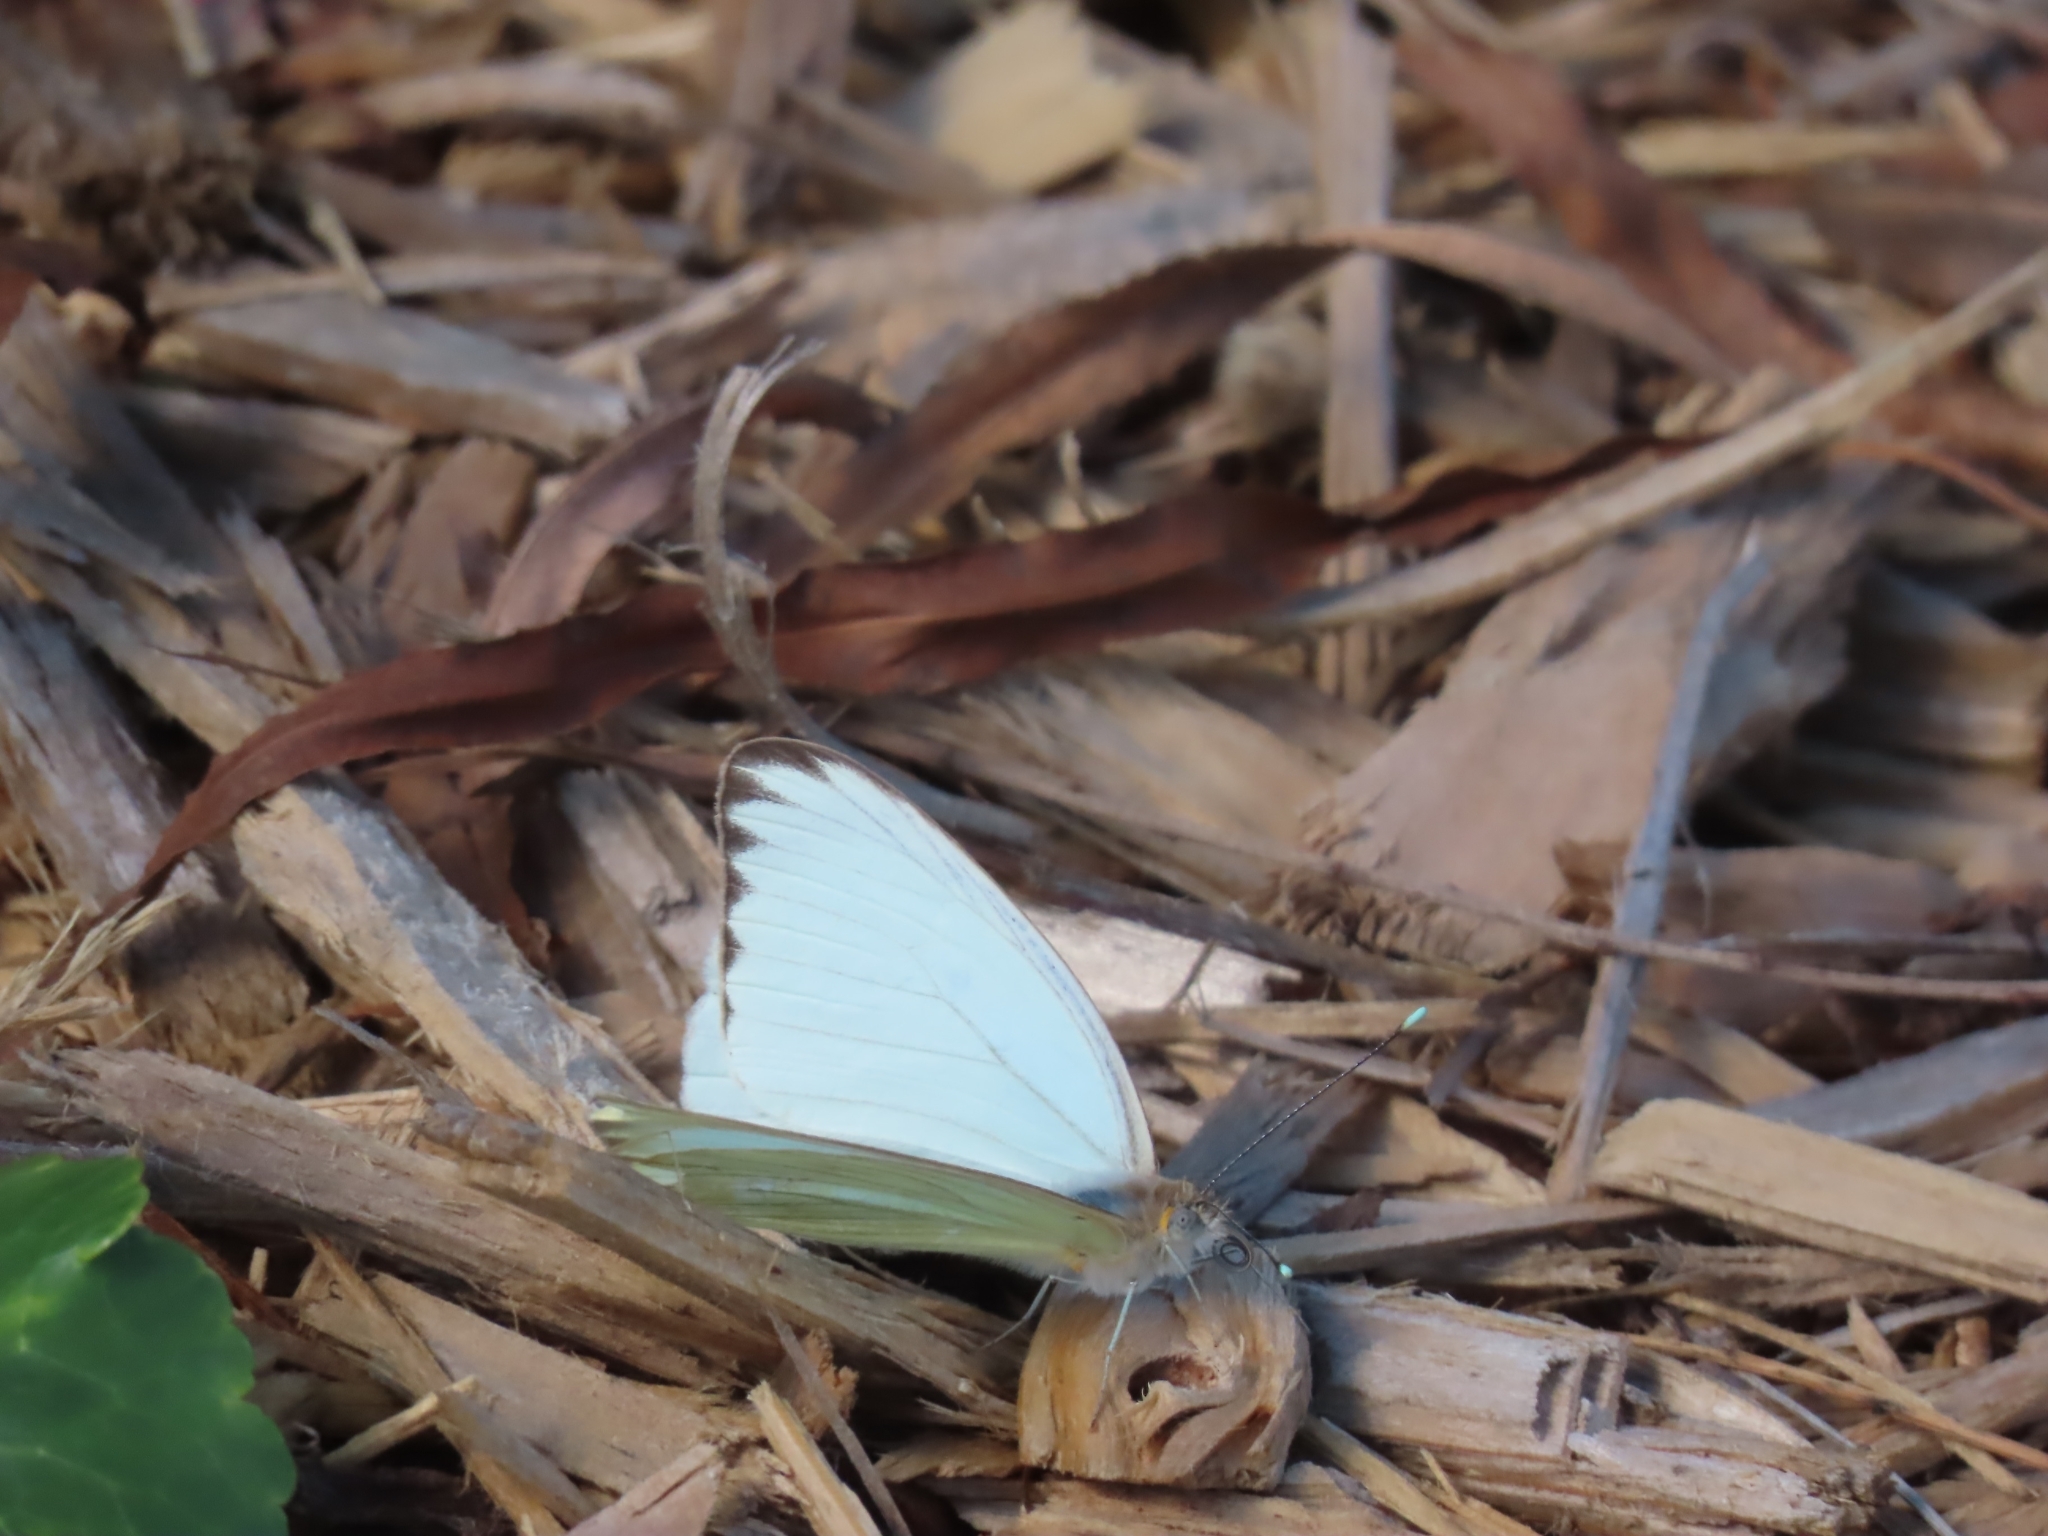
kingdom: Animalia
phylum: Arthropoda
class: Insecta
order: Lepidoptera
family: Pieridae
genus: Ascia
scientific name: Ascia monuste
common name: Great southern white
